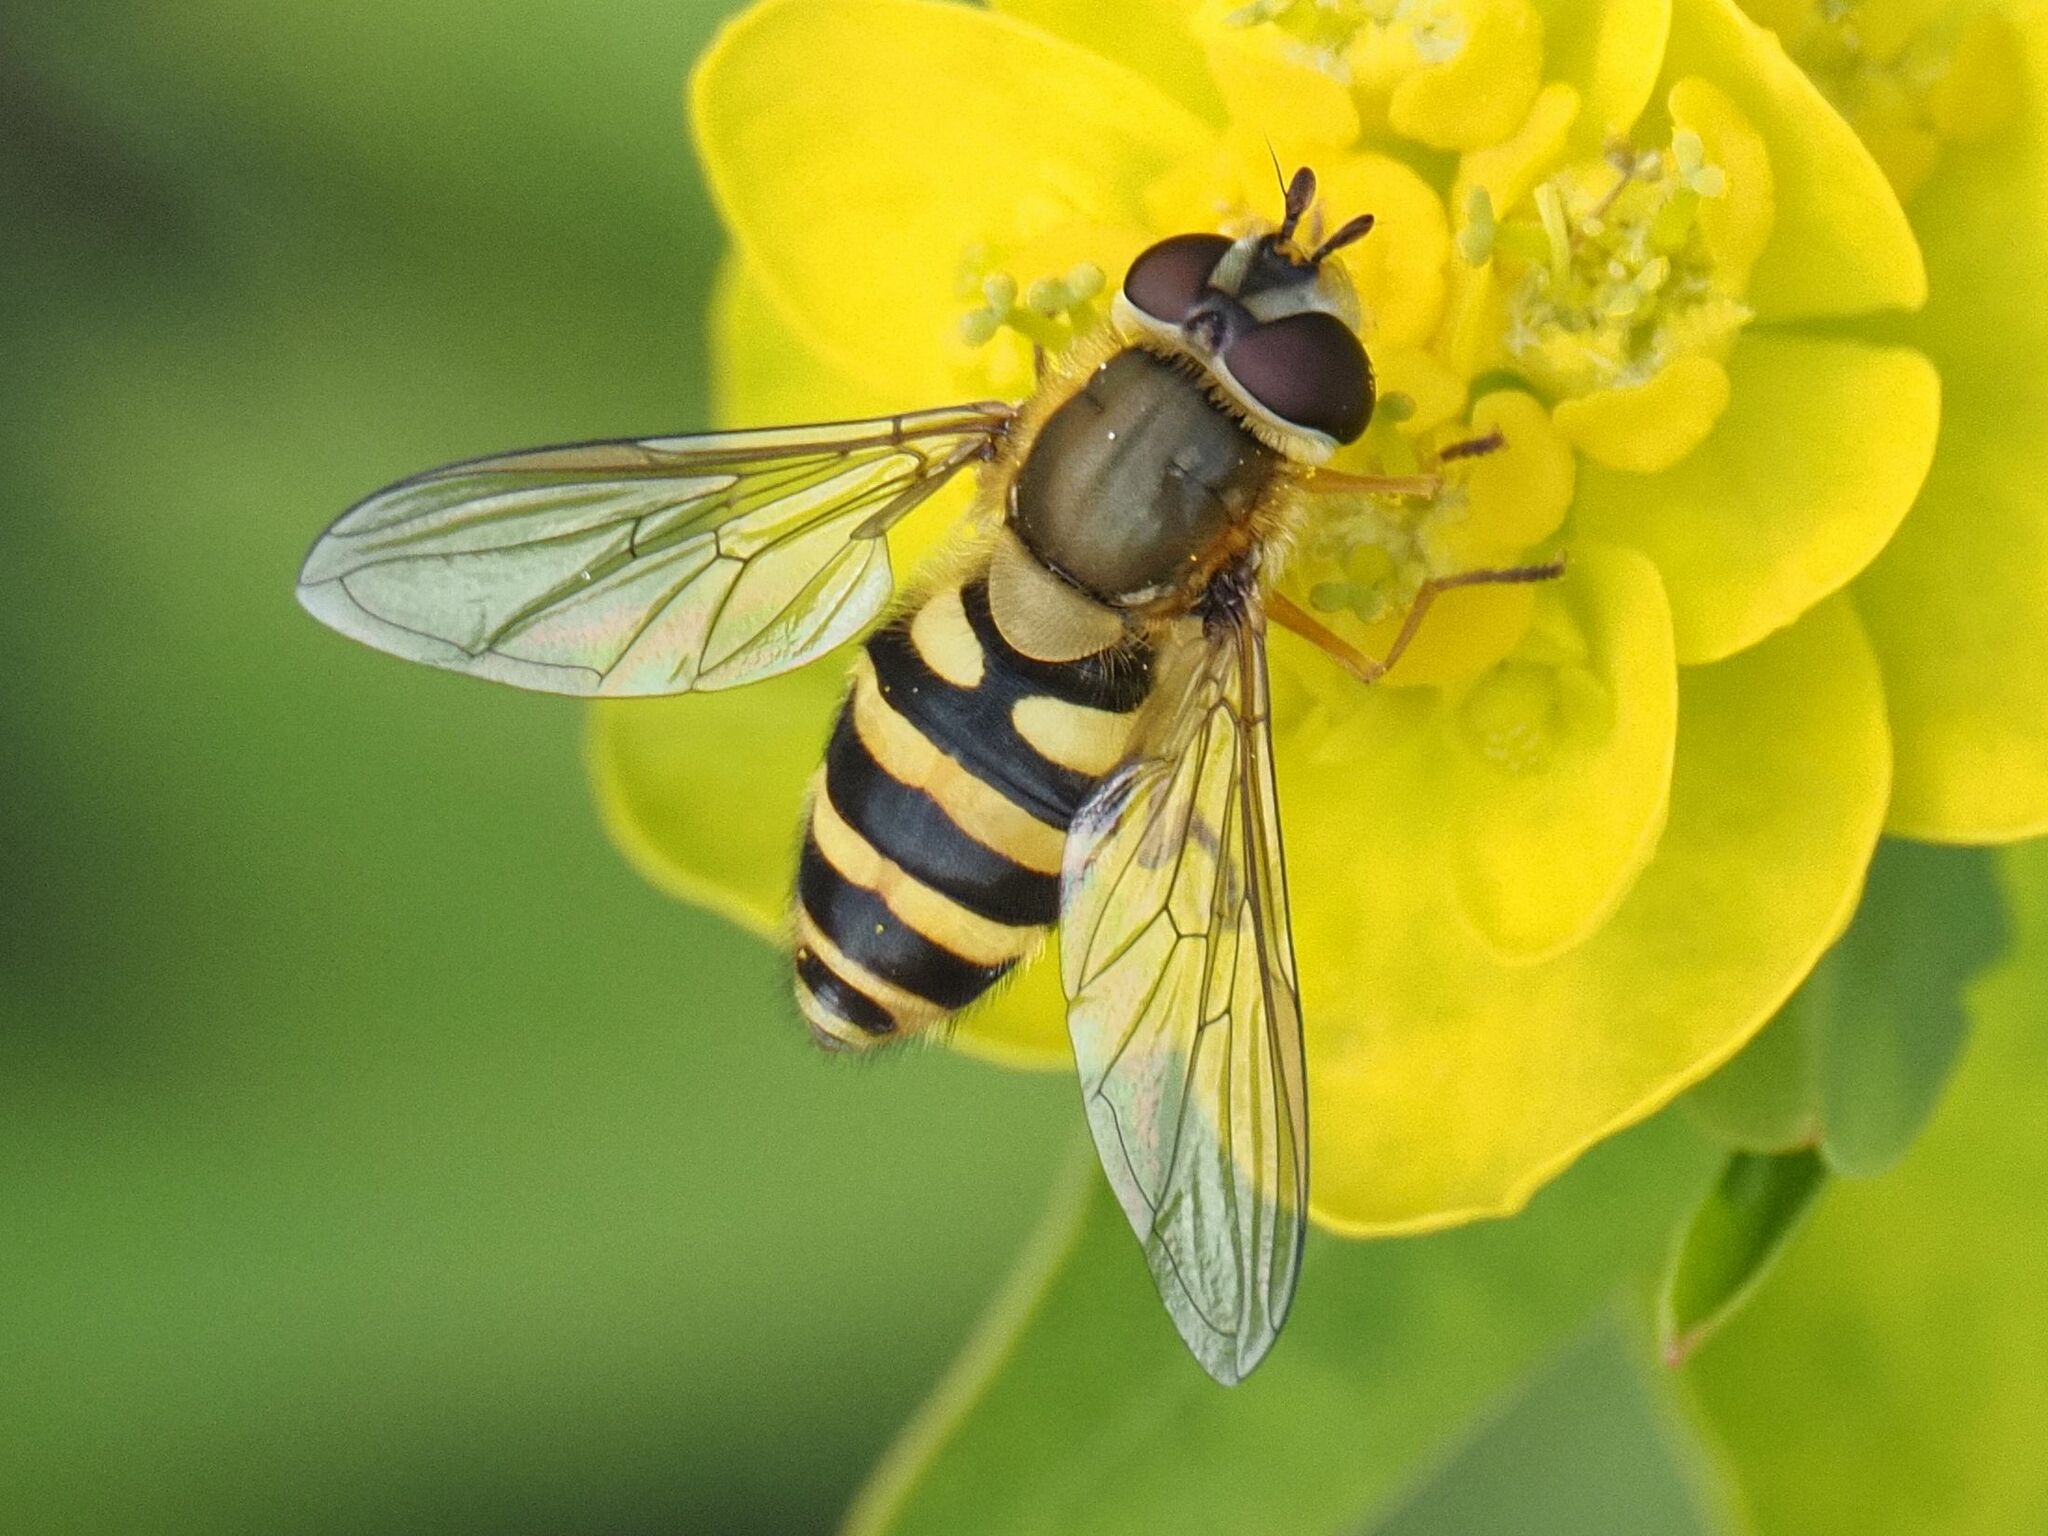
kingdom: Animalia
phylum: Arthropoda
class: Insecta
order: Diptera
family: Syrphidae
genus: Syrphus
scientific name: Syrphus ribesii
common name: Common flower fly
